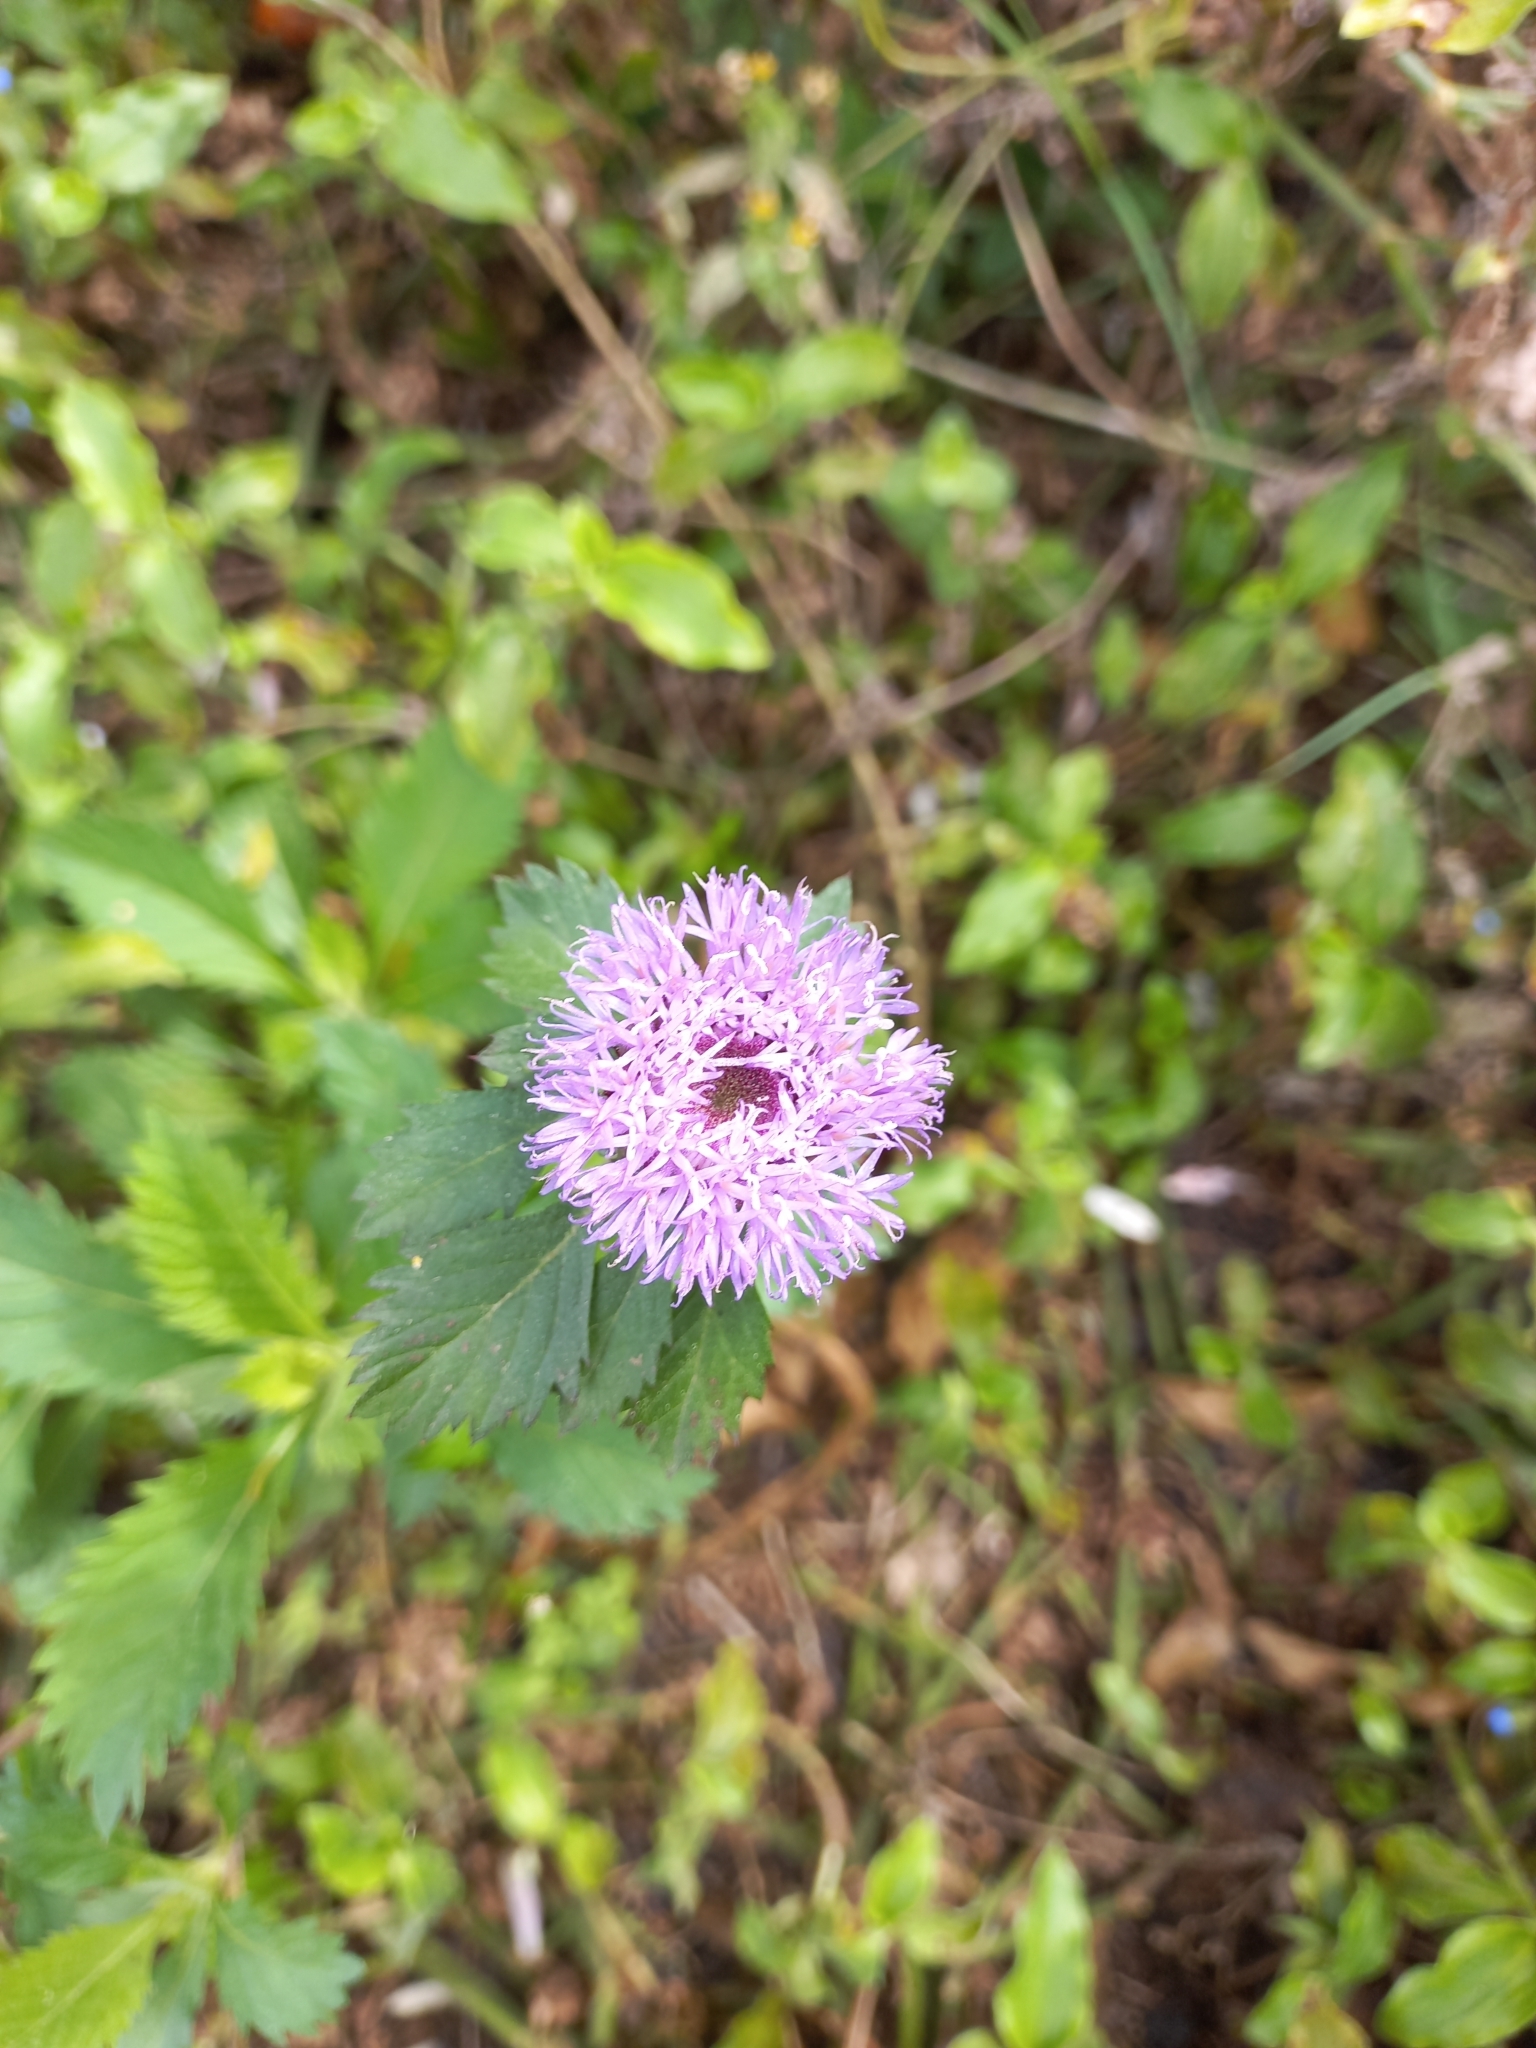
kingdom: Plantae
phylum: Tracheophyta
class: Magnoliopsida
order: Asterales
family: Asteraceae
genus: Centratherum
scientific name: Centratherum punctatum
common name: Larkdaisy
